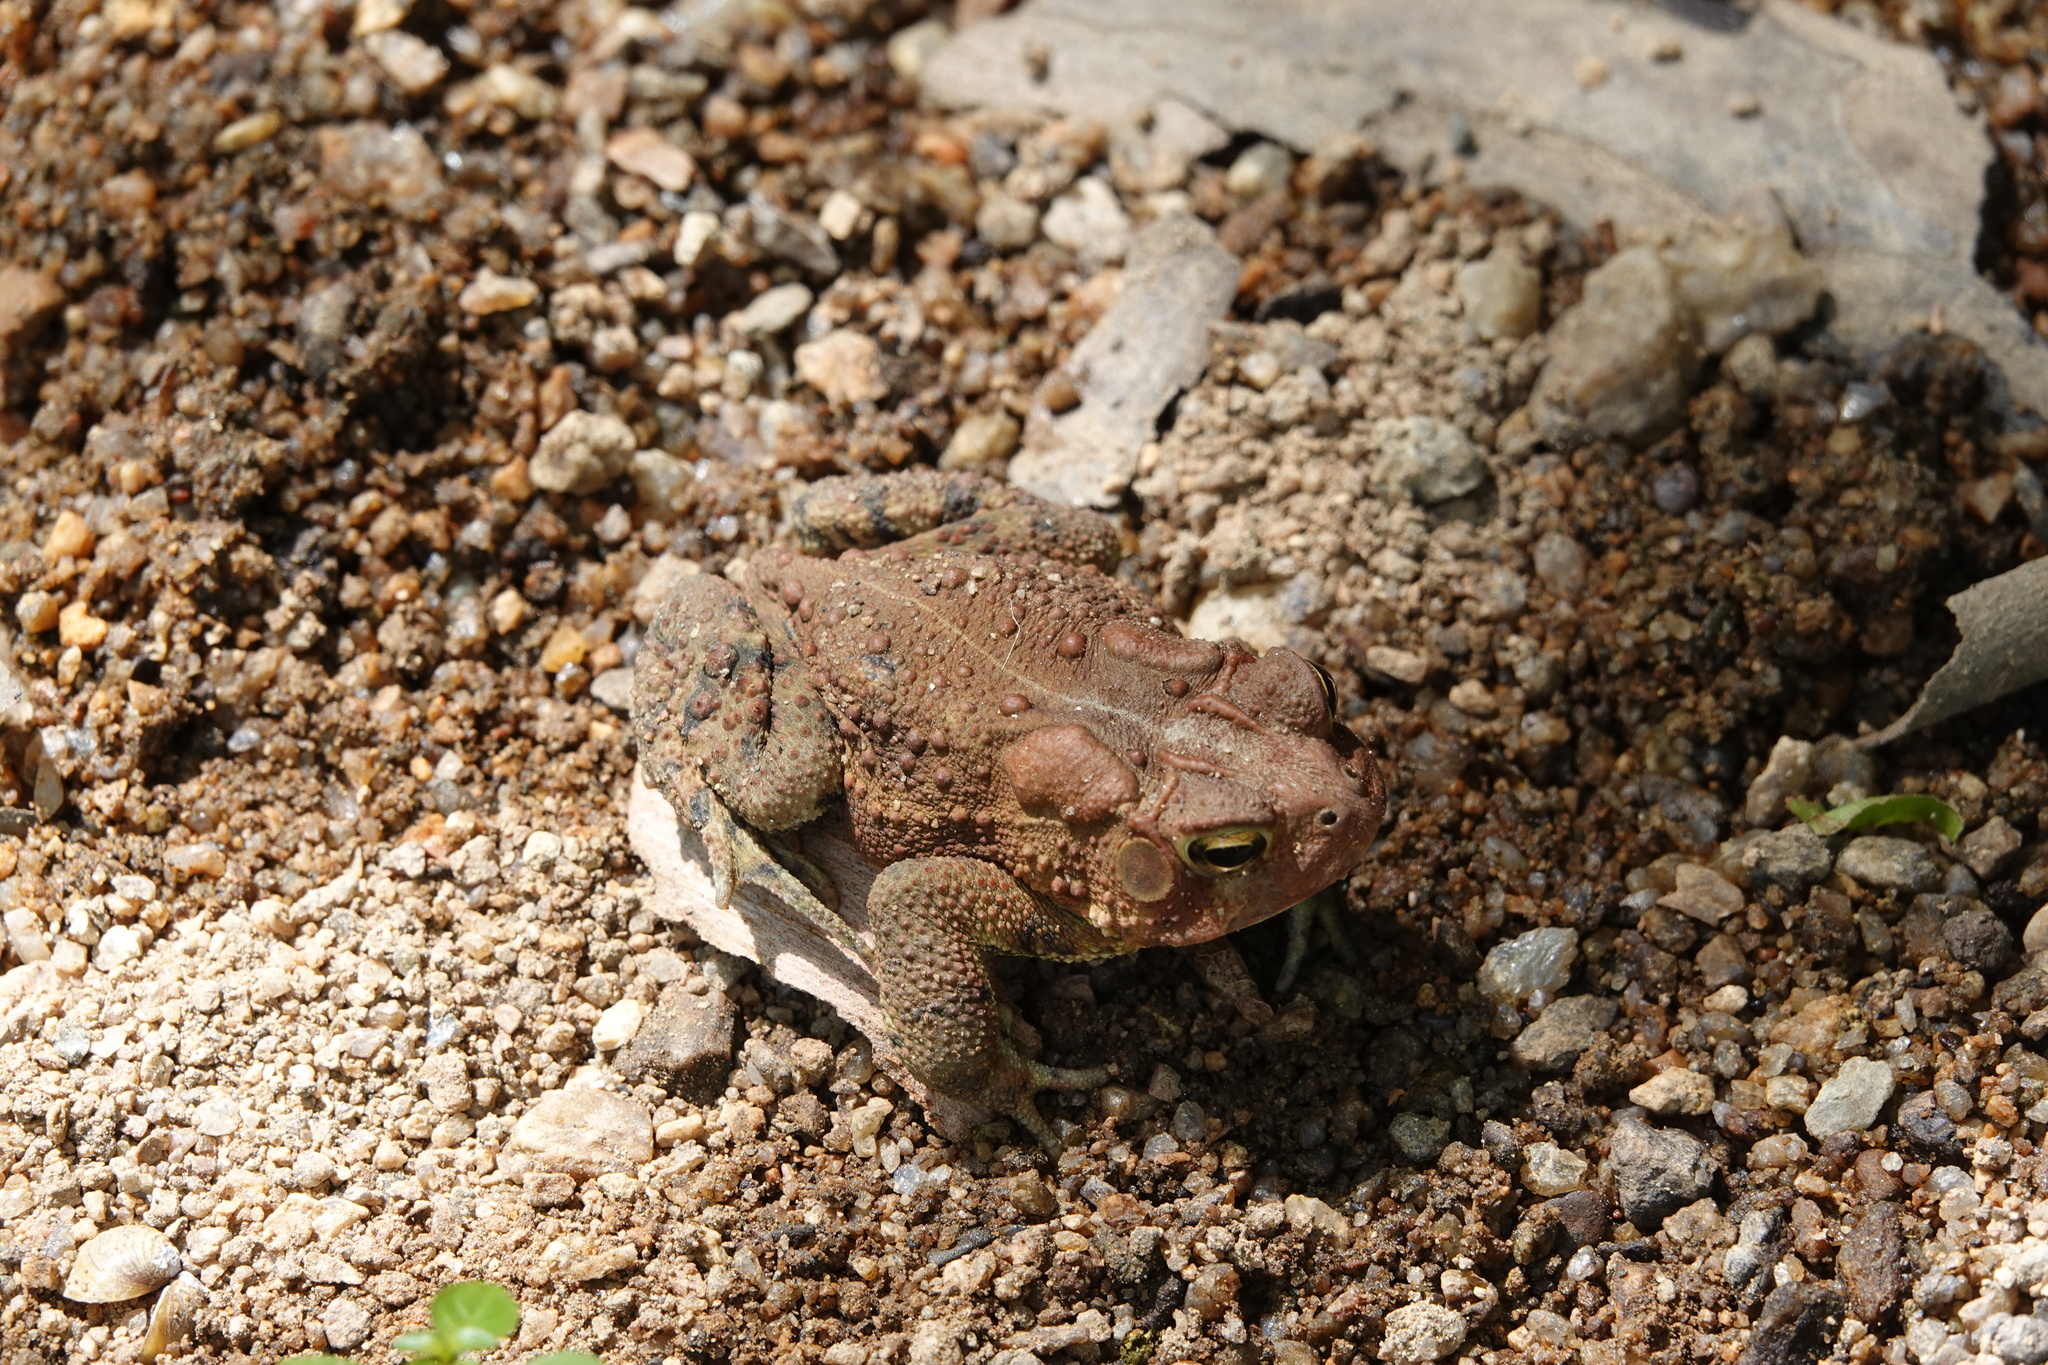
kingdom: Animalia
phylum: Chordata
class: Amphibia
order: Anura
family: Bufonidae
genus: Anaxyrus
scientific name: Anaxyrus americanus
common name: American toad
